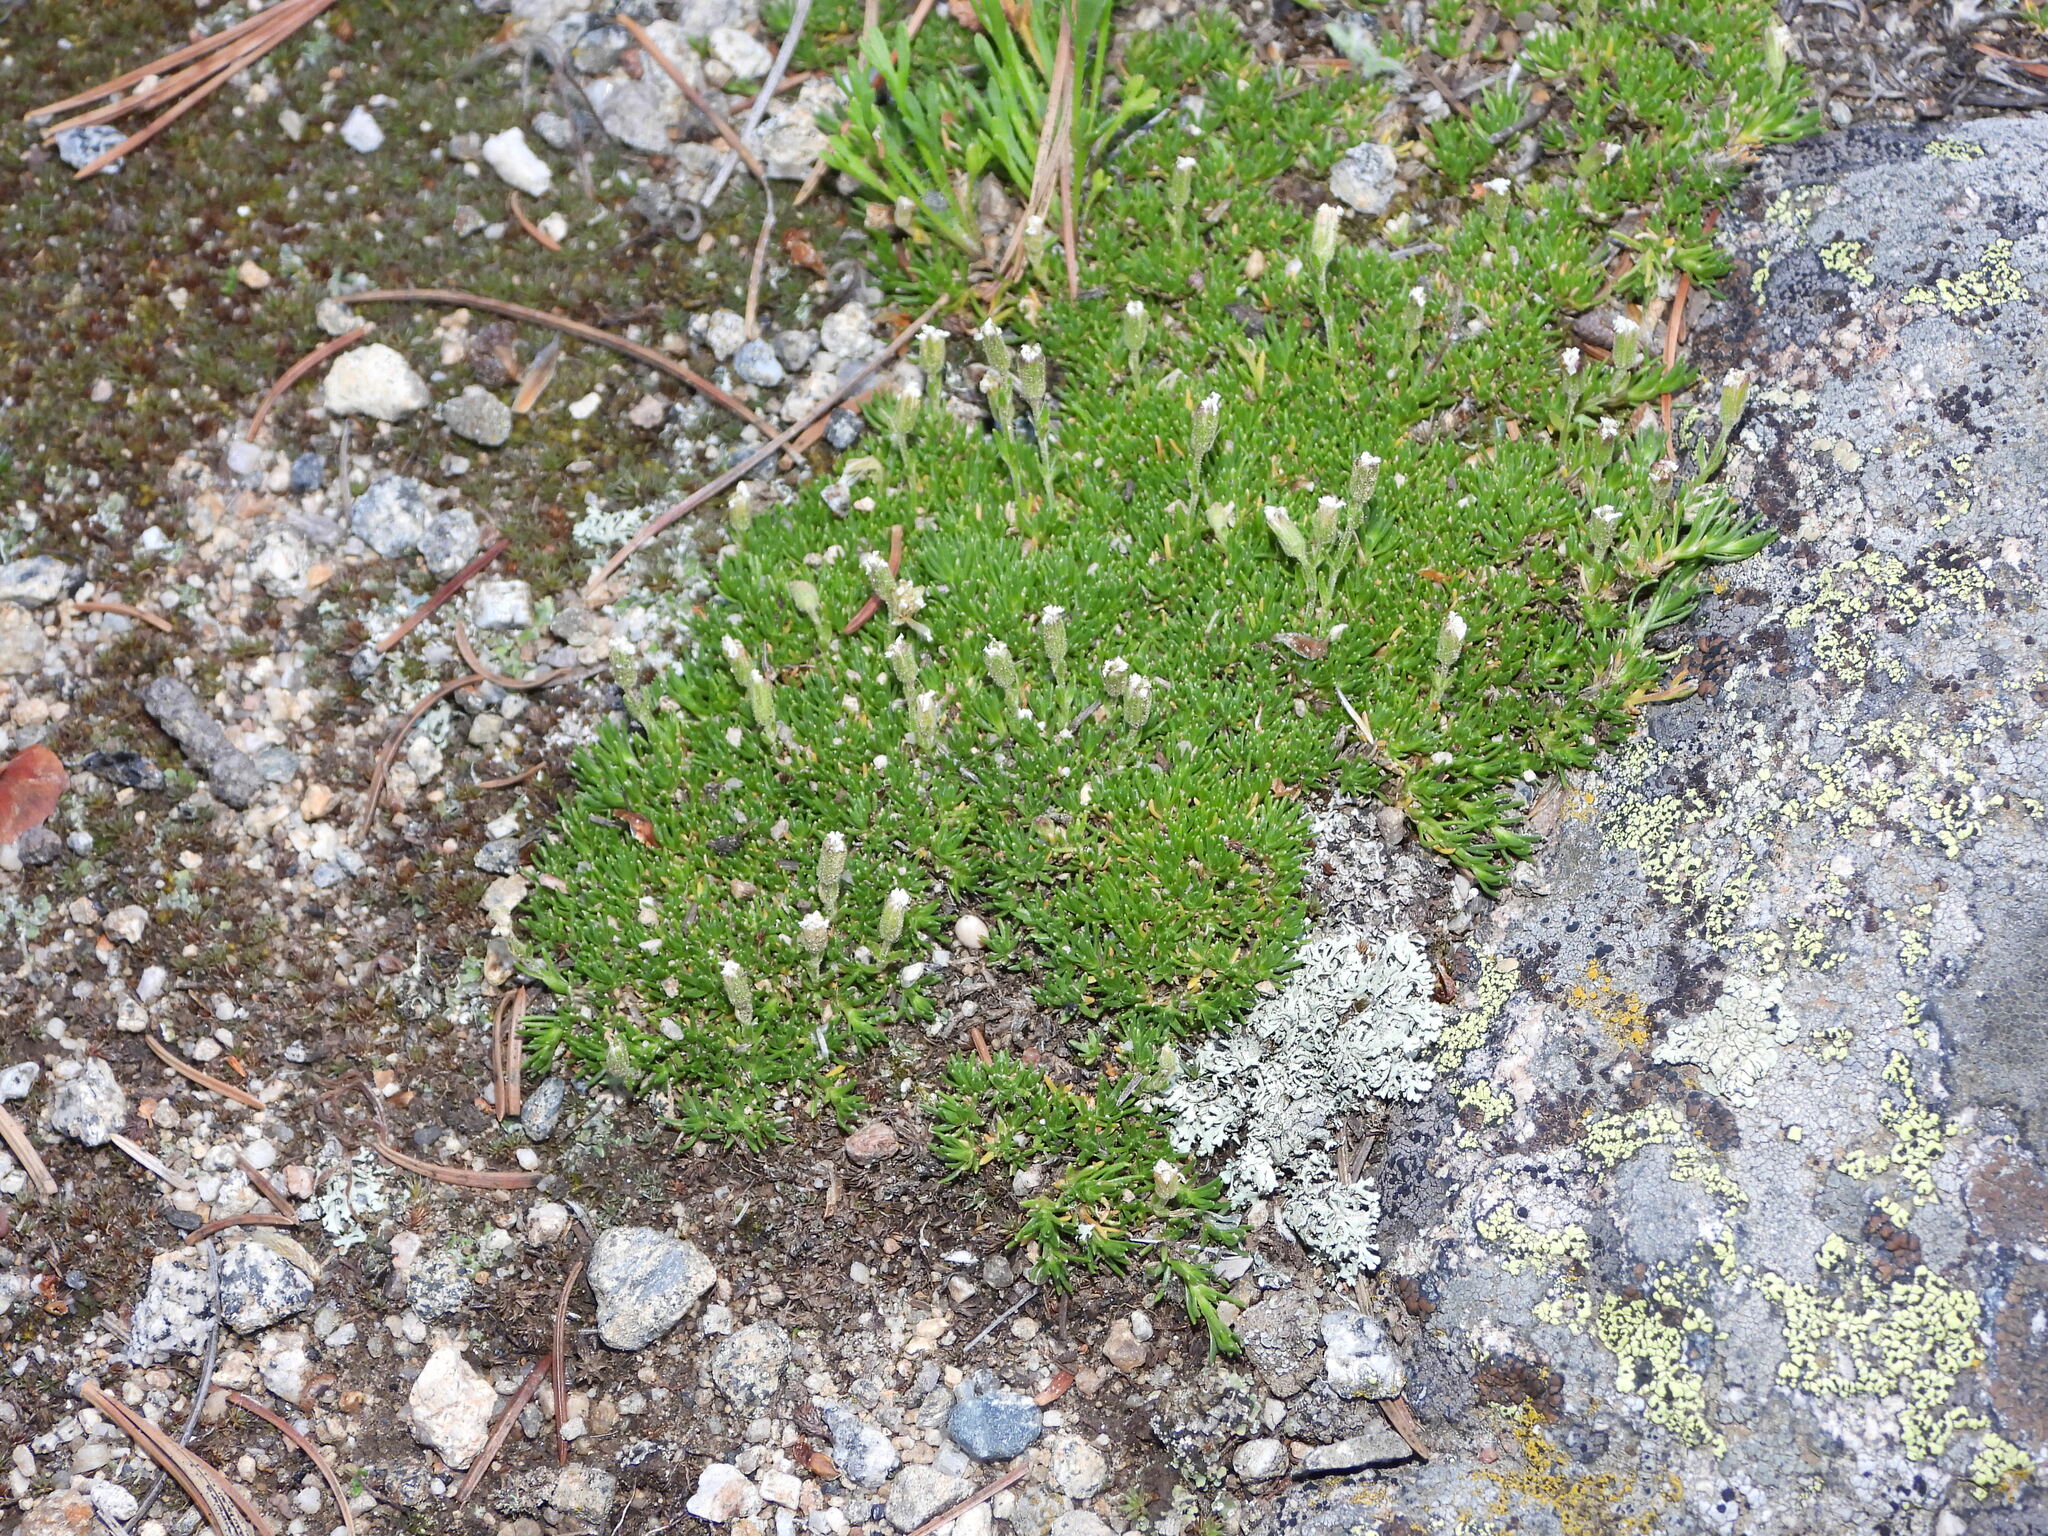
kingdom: Plantae
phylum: Tracheophyta
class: Magnoliopsida
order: Caryophyllales
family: Caryophyllaceae
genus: Cherleria
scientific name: Cherleria obtusiloba
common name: Alpine stitchwort
